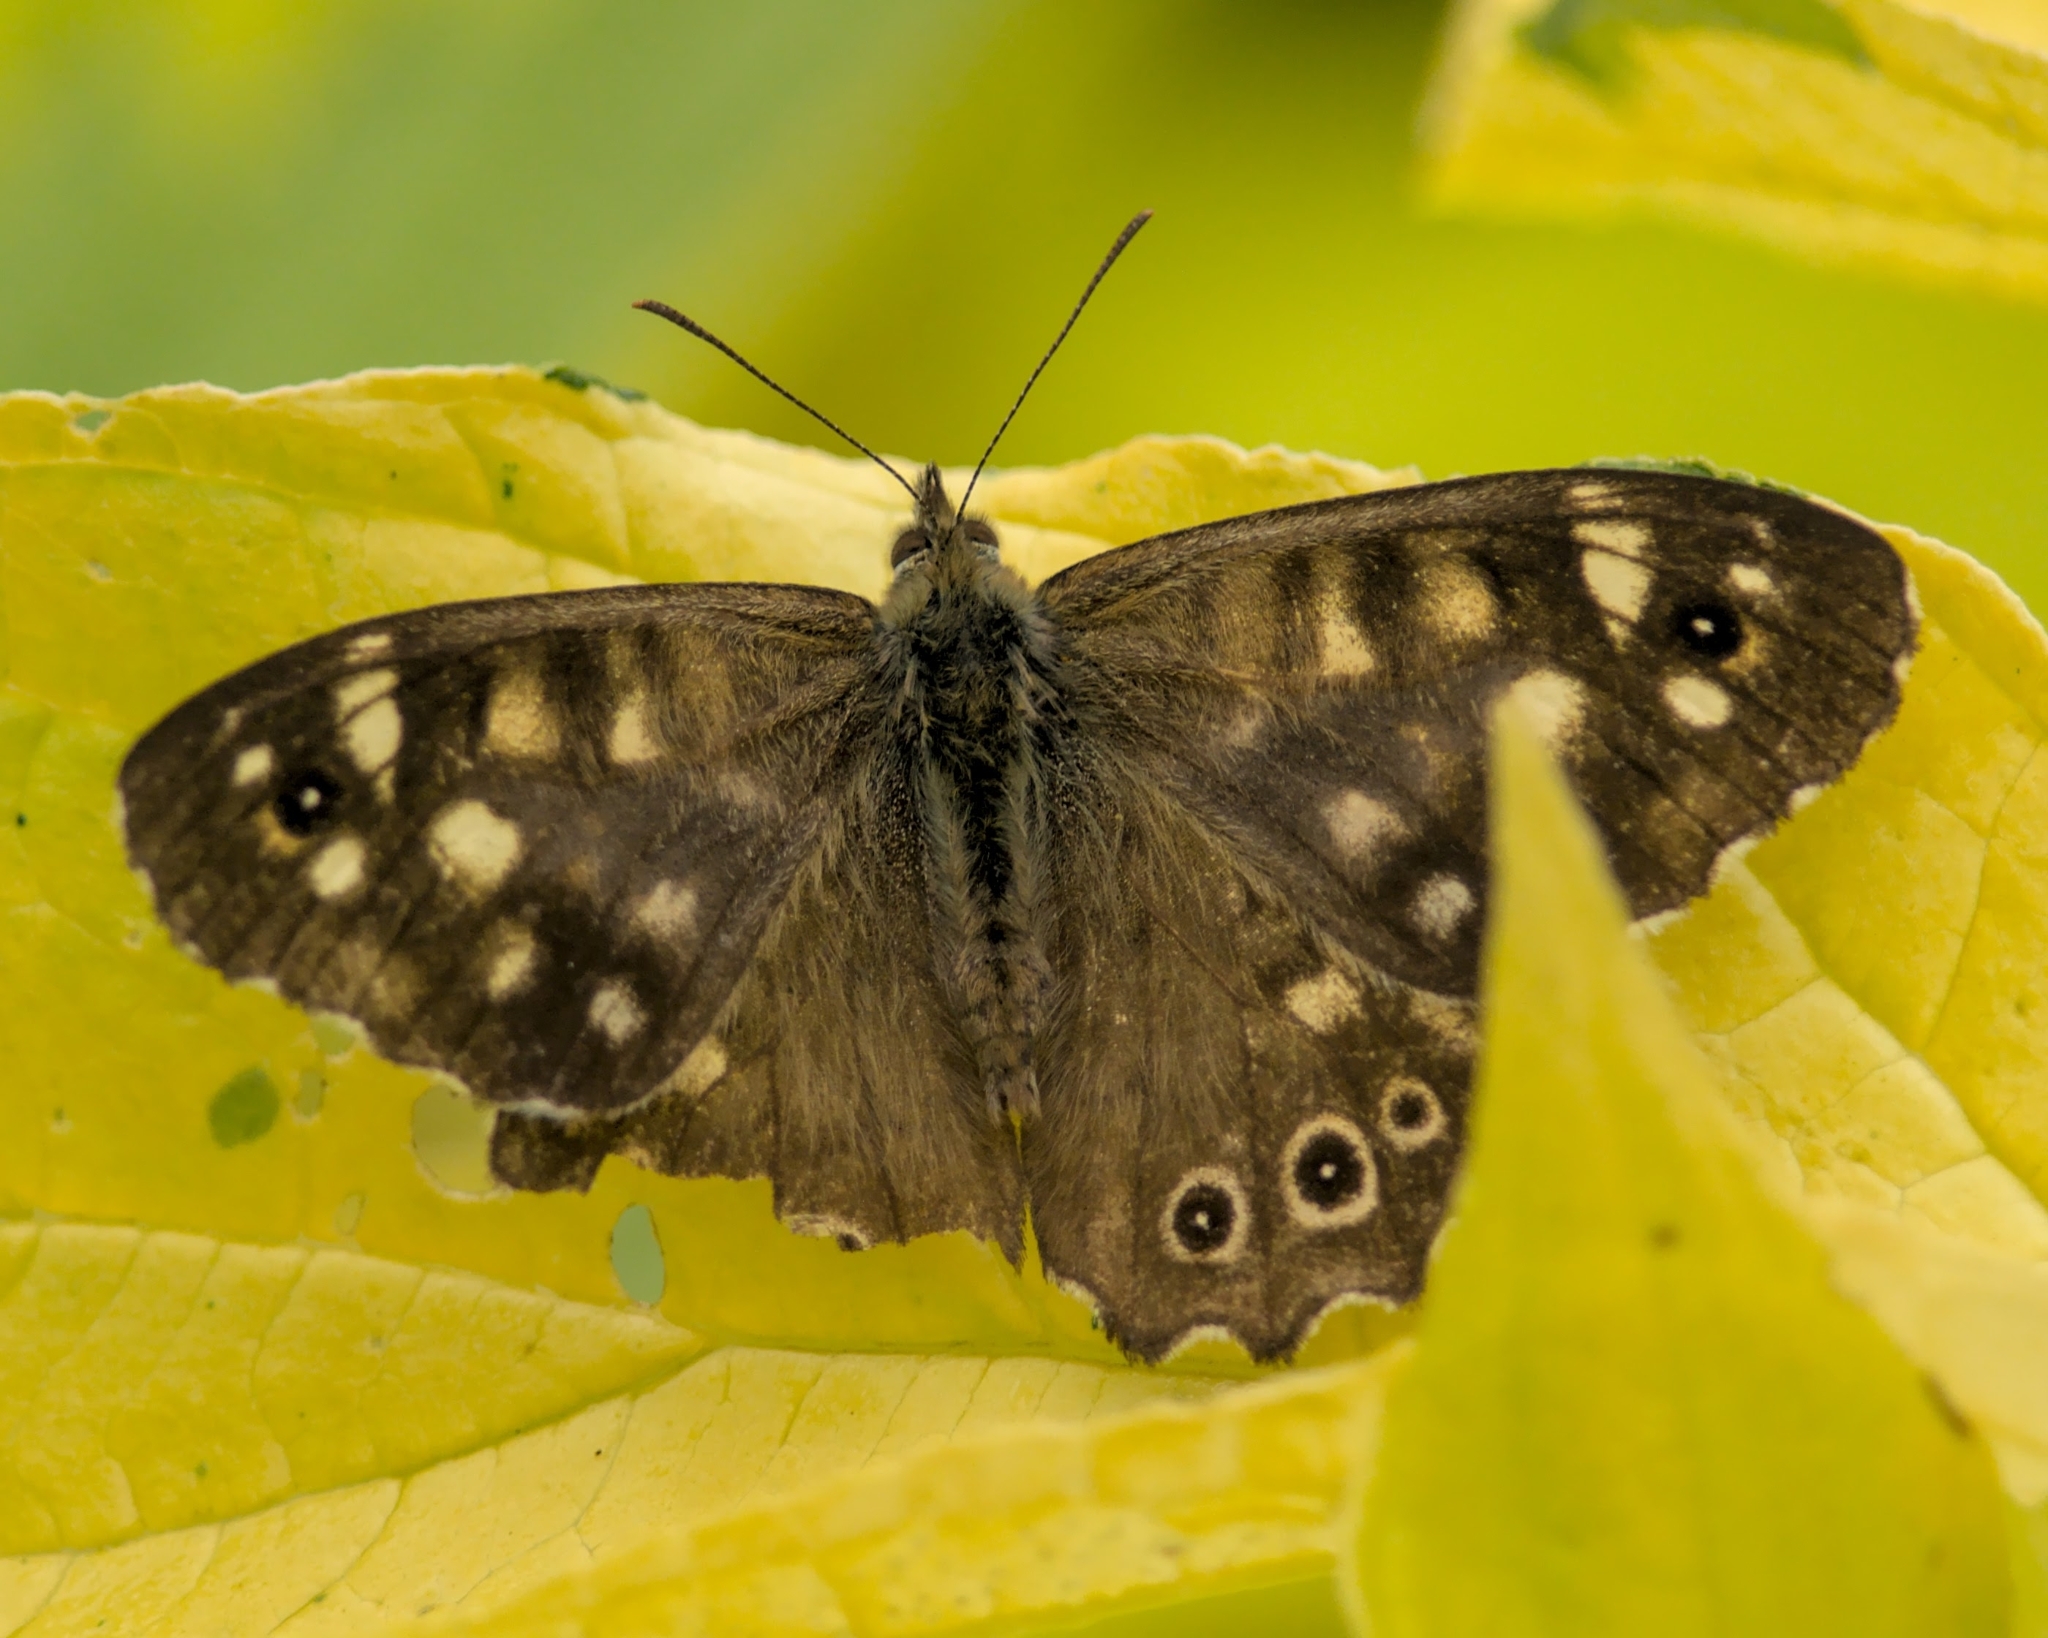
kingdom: Animalia
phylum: Arthropoda
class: Insecta
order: Lepidoptera
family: Nymphalidae
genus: Pararge
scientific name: Pararge aegeria
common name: Speckled wood
